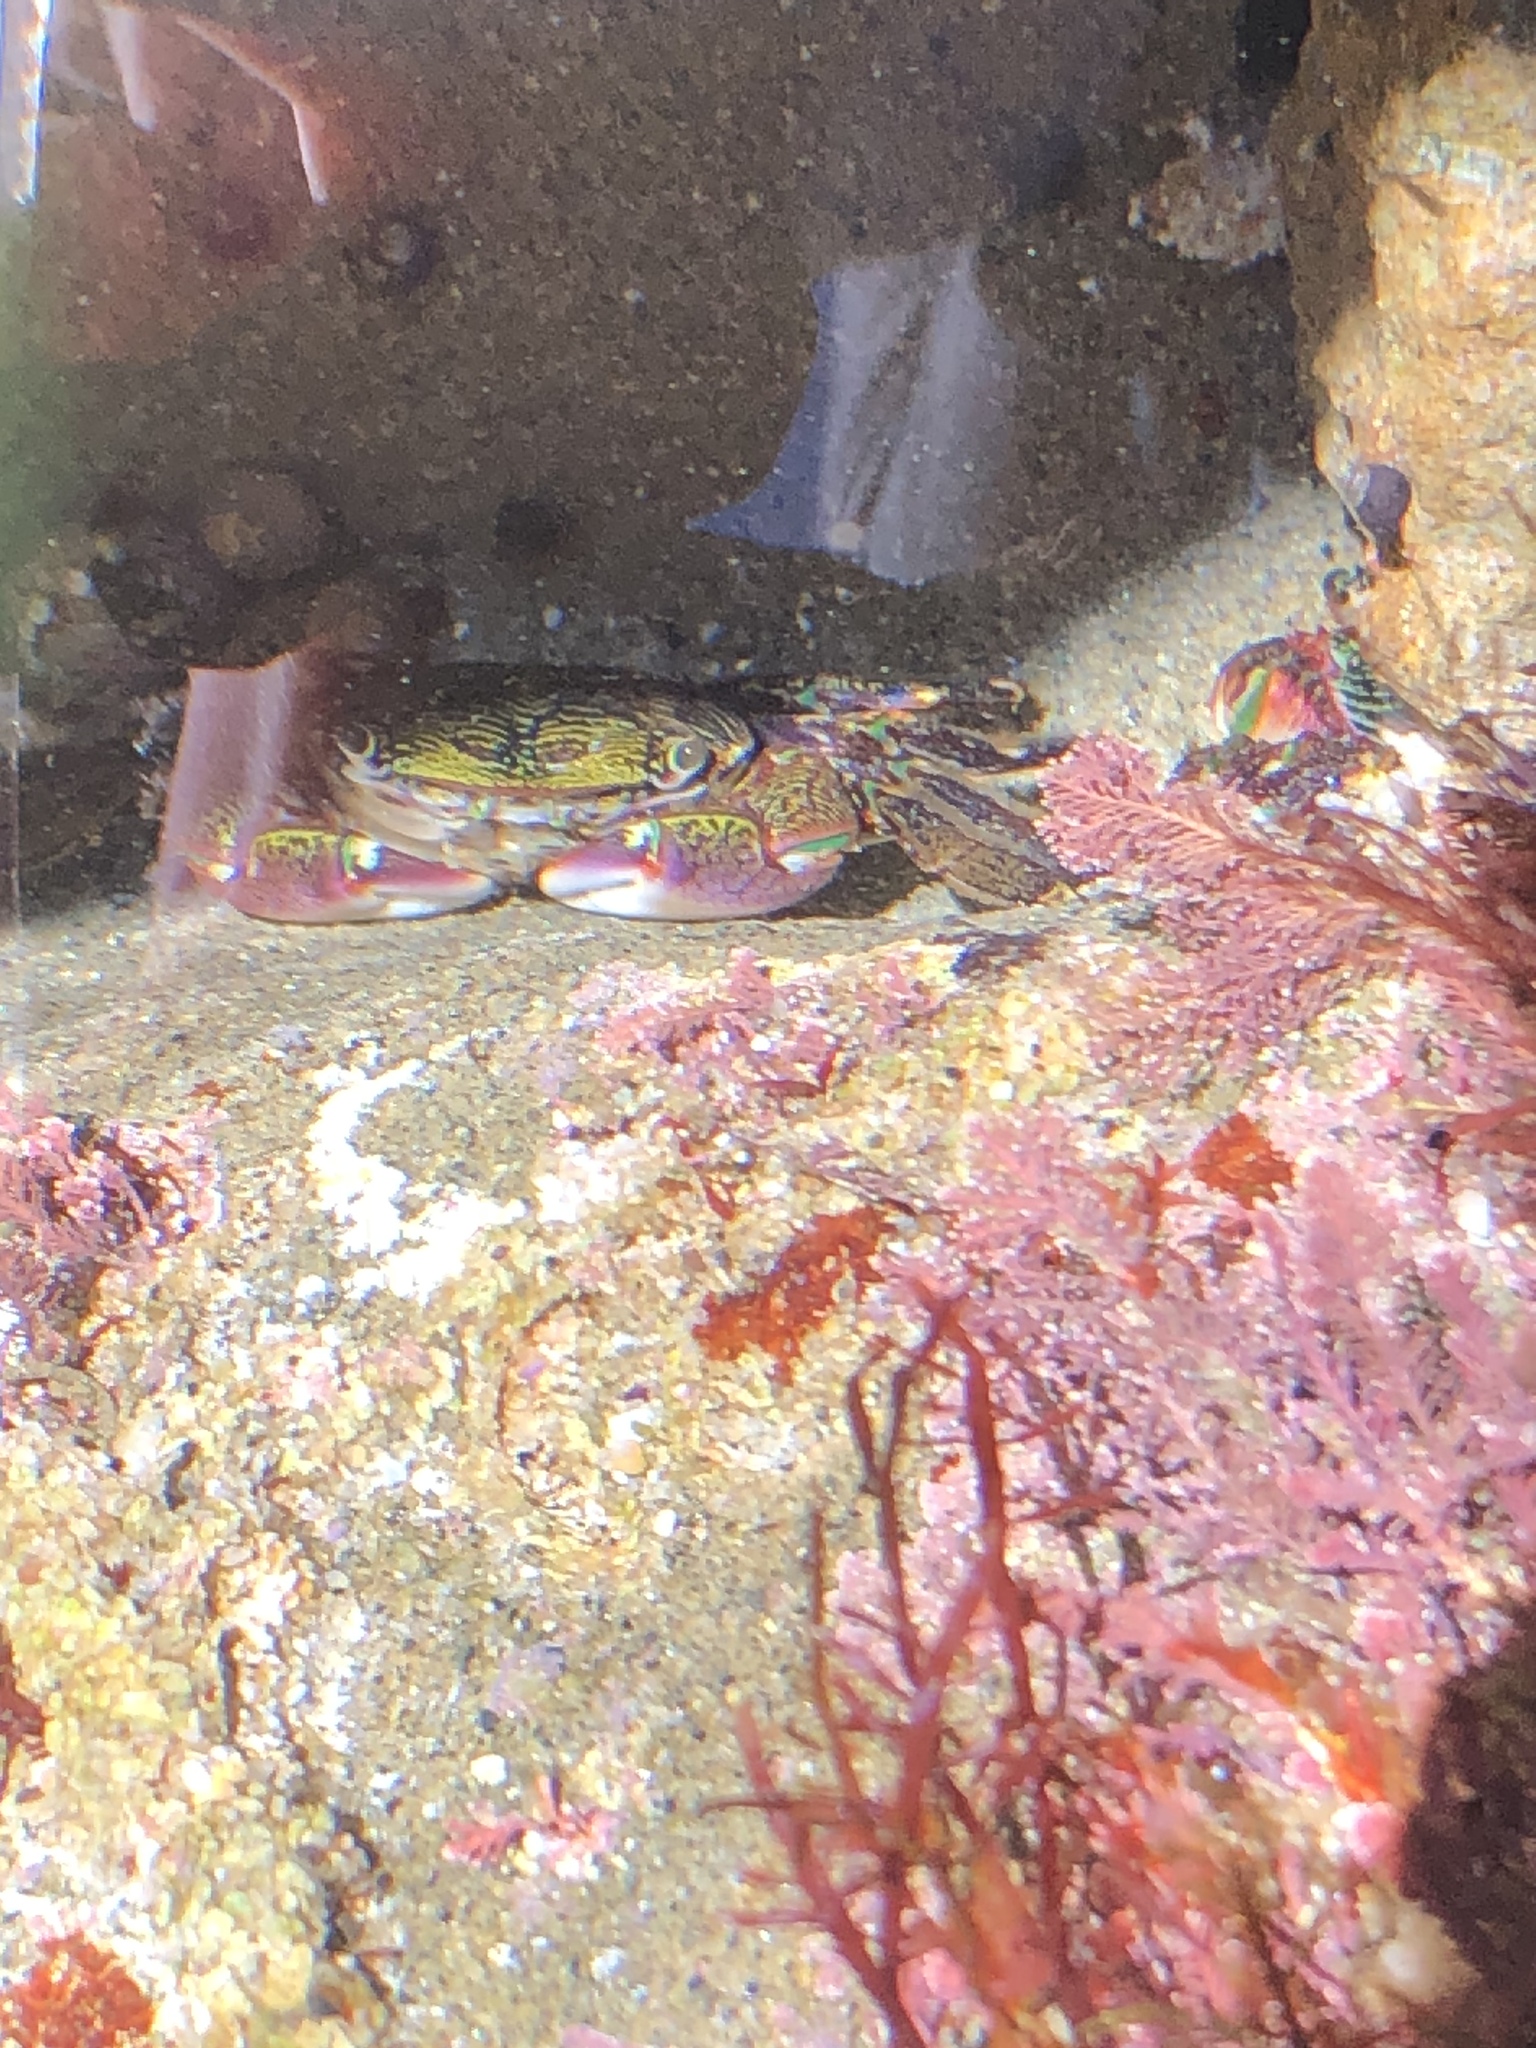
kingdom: Animalia
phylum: Arthropoda
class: Malacostraca
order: Decapoda
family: Grapsidae
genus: Pachygrapsus
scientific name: Pachygrapsus crassipes
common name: Striped shore crab
